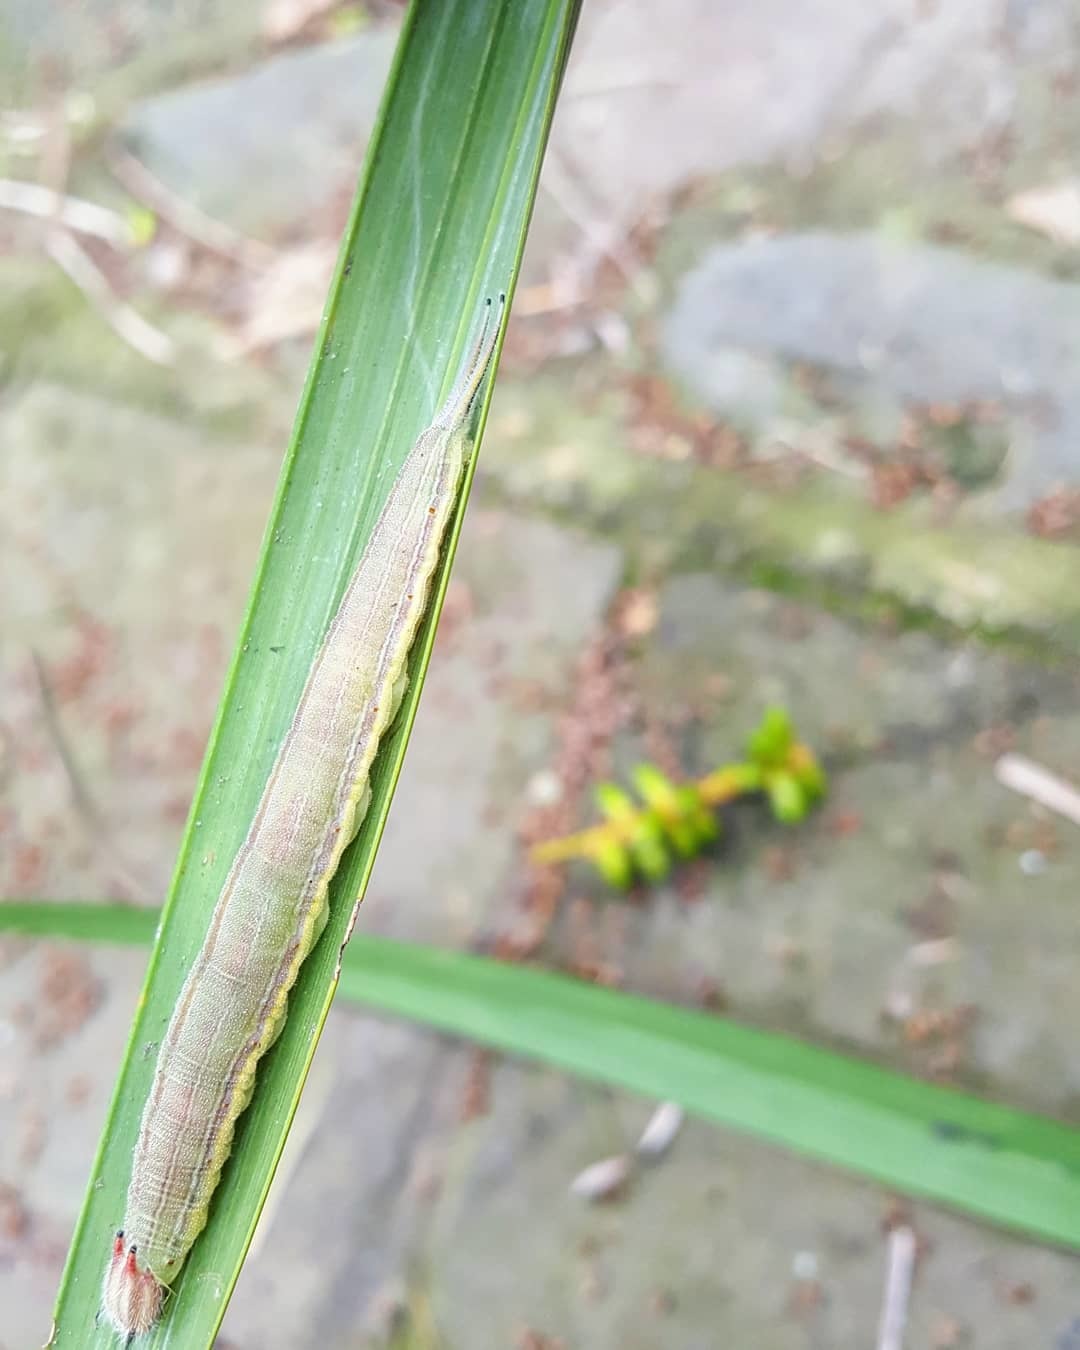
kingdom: Animalia
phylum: Arthropoda
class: Insecta
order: Lepidoptera
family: Nymphalidae
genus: Opsiphanes
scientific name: Opsiphanes cassina
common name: Split-banded owl-butterfly
